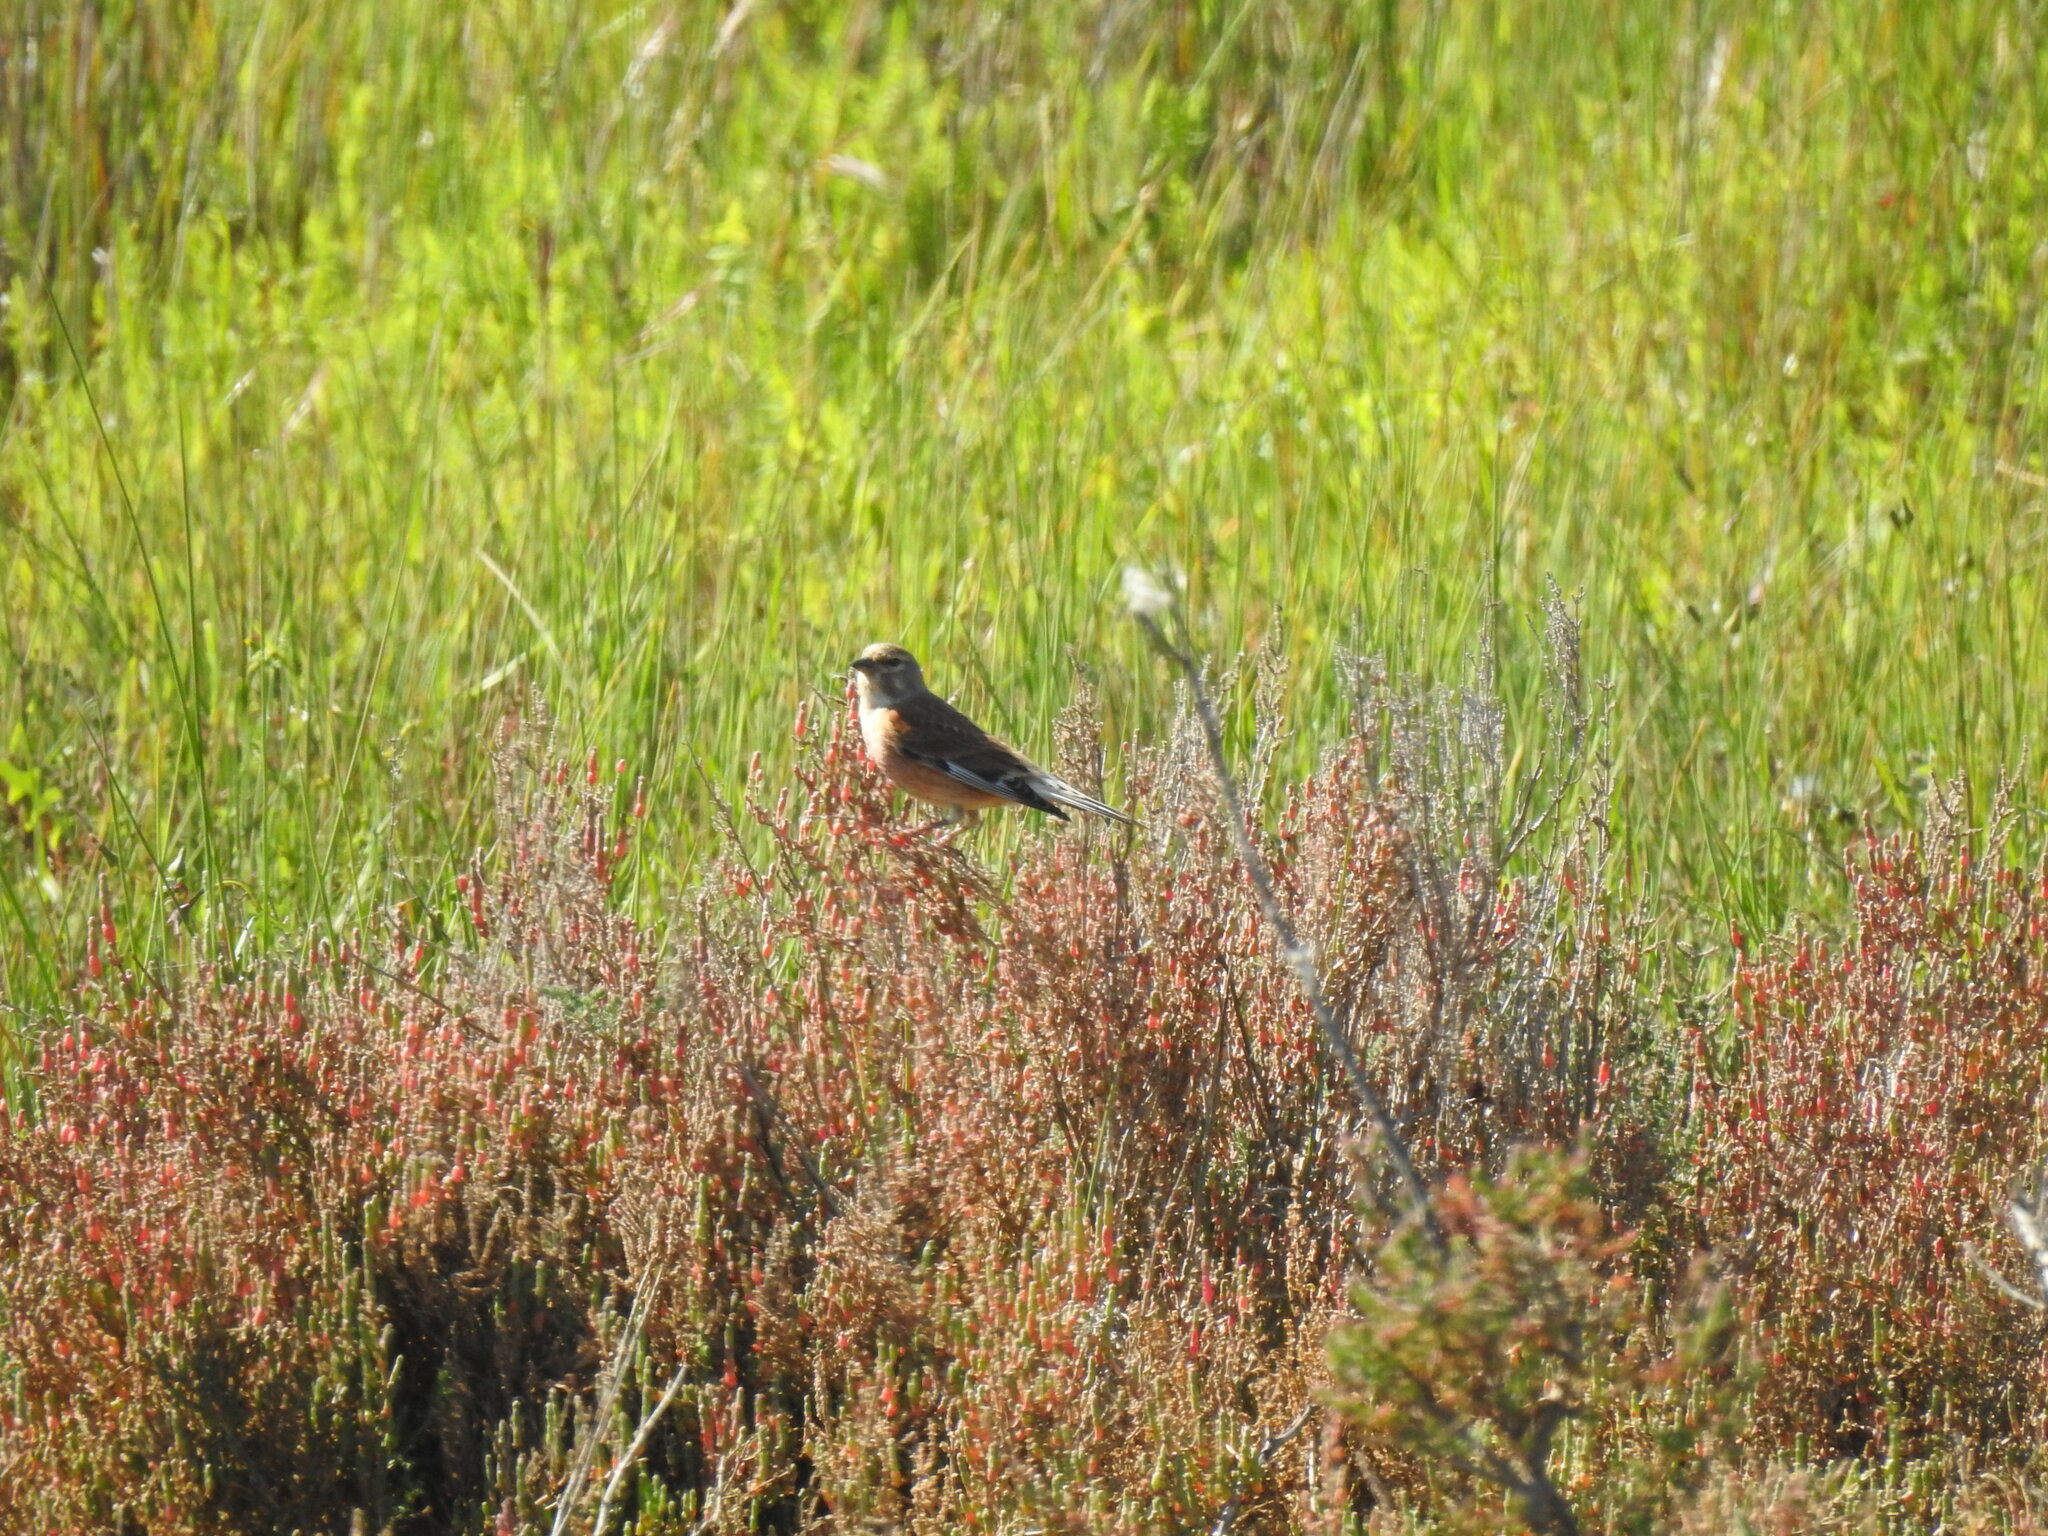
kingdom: Animalia
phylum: Chordata
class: Aves
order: Passeriformes
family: Fringillidae
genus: Linaria
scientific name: Linaria cannabina
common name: Common linnet
